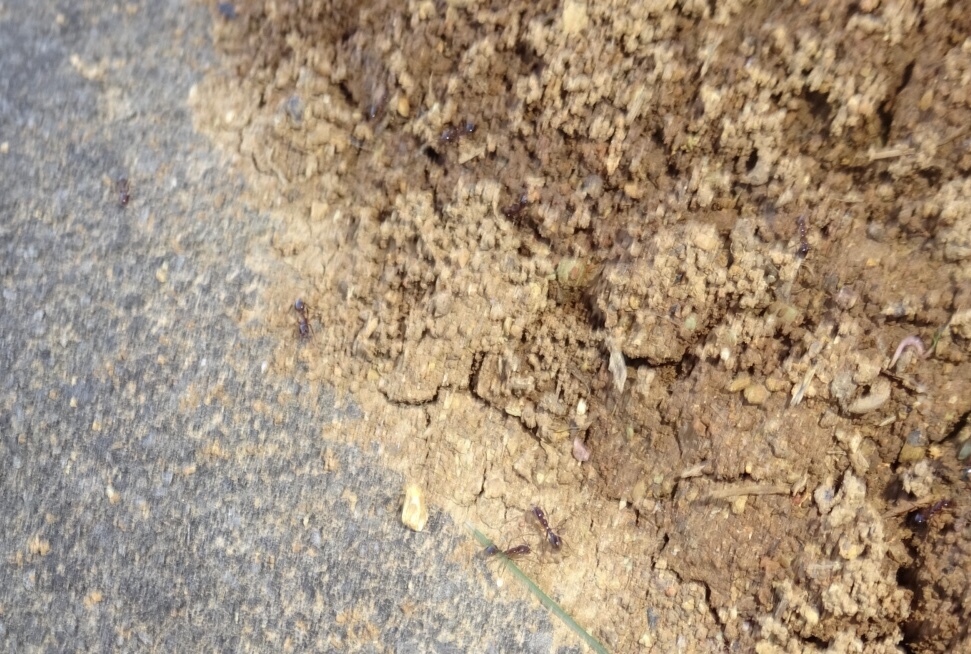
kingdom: Animalia
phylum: Arthropoda
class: Insecta
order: Hymenoptera
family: Formicidae
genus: Solenopsis
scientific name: Solenopsis
